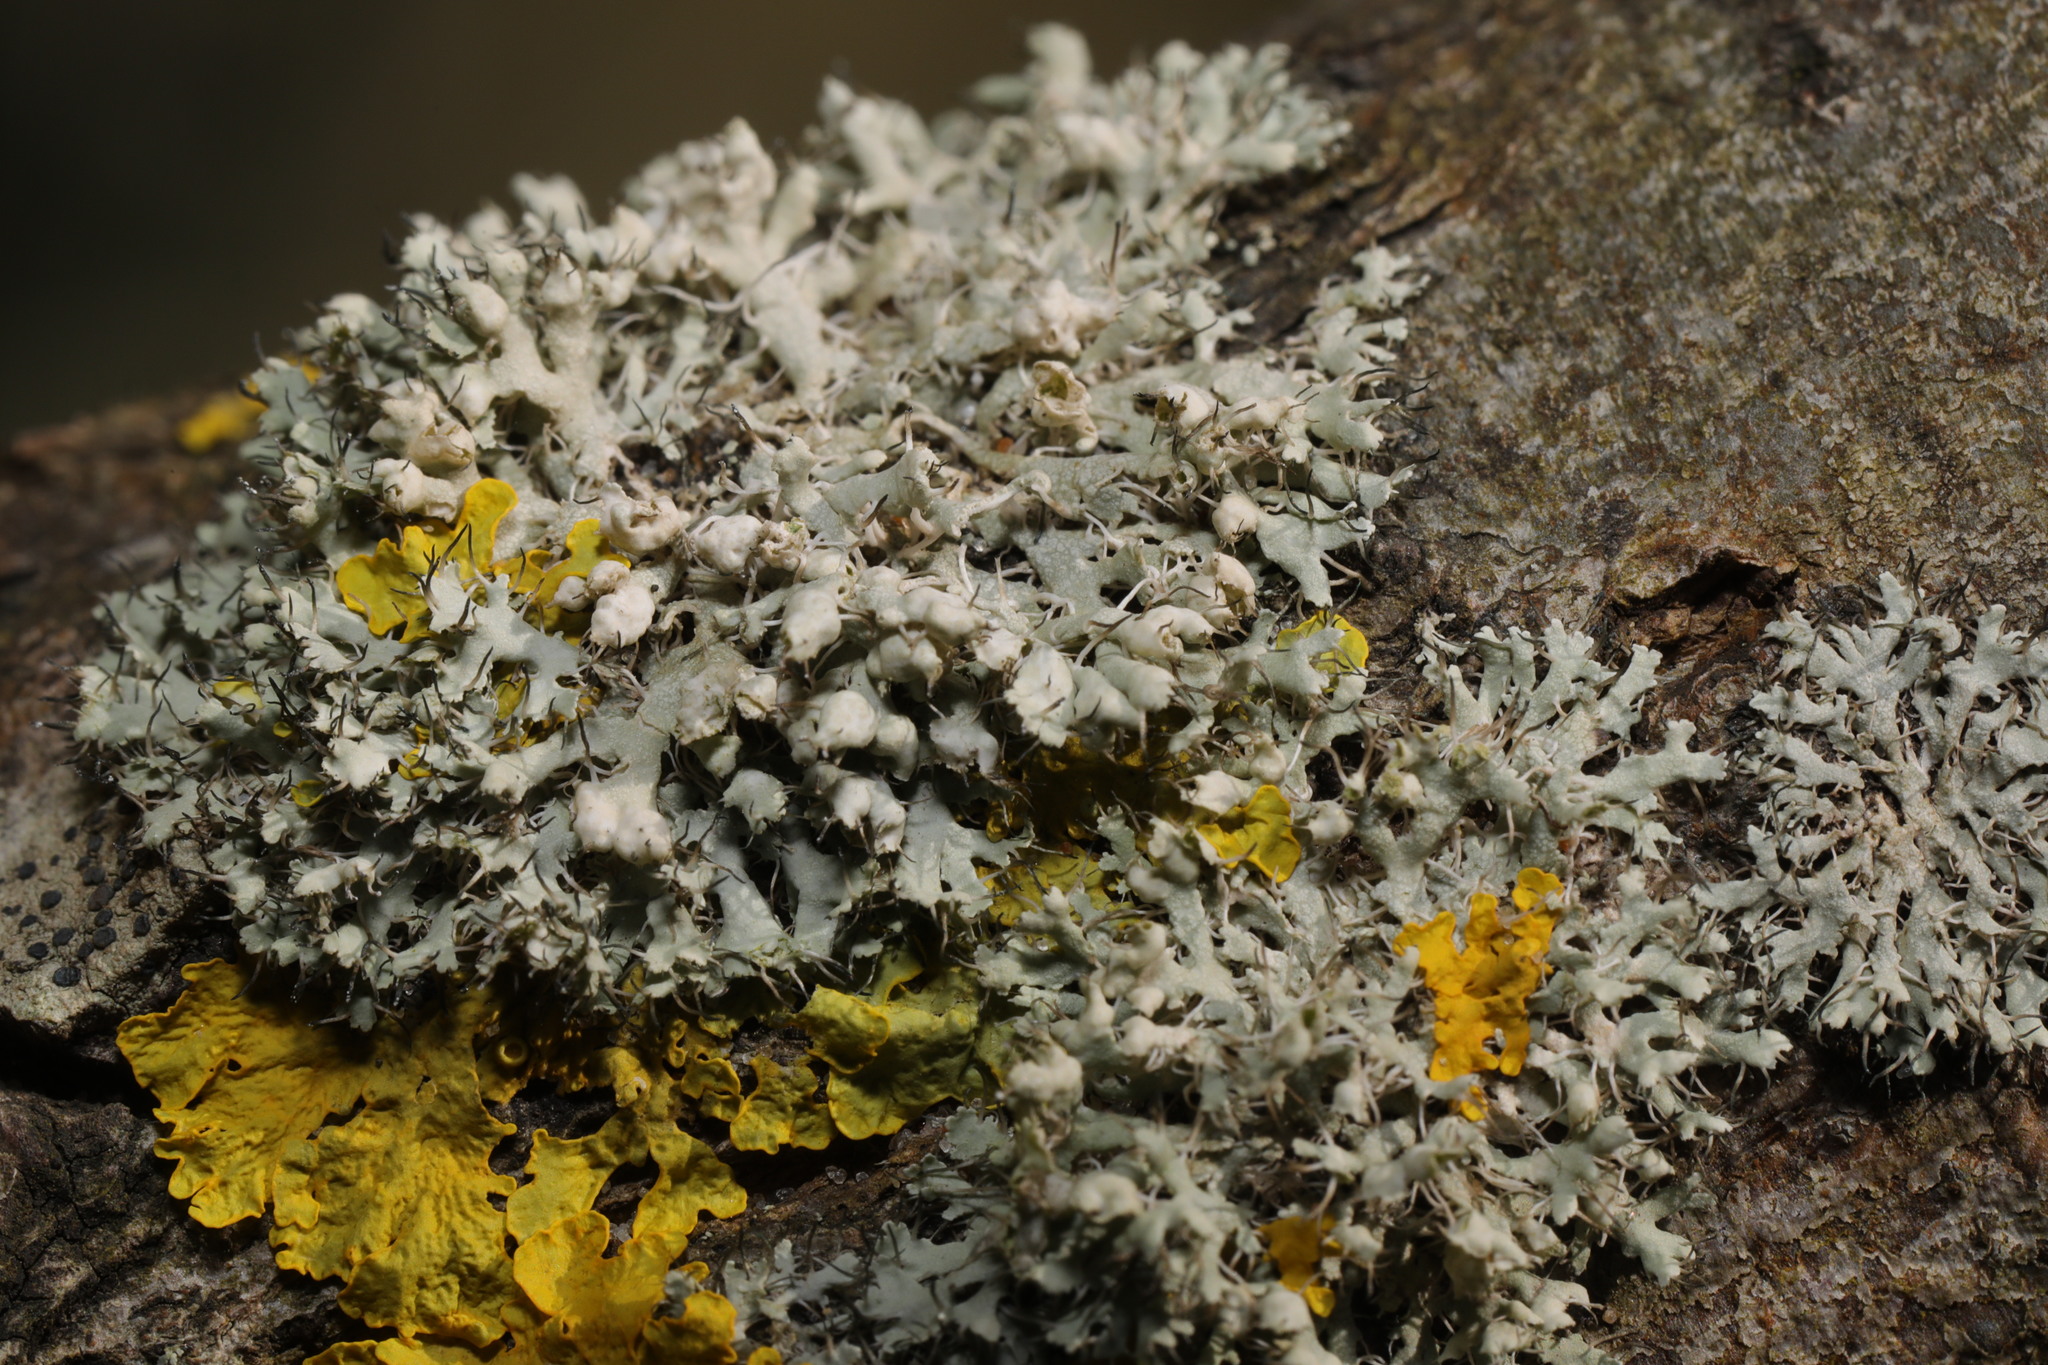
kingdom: Fungi
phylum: Ascomycota
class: Lecanoromycetes
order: Caliciales
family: Physciaceae
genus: Physcia
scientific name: Physcia adscendens
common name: Hooded rosette lichen
